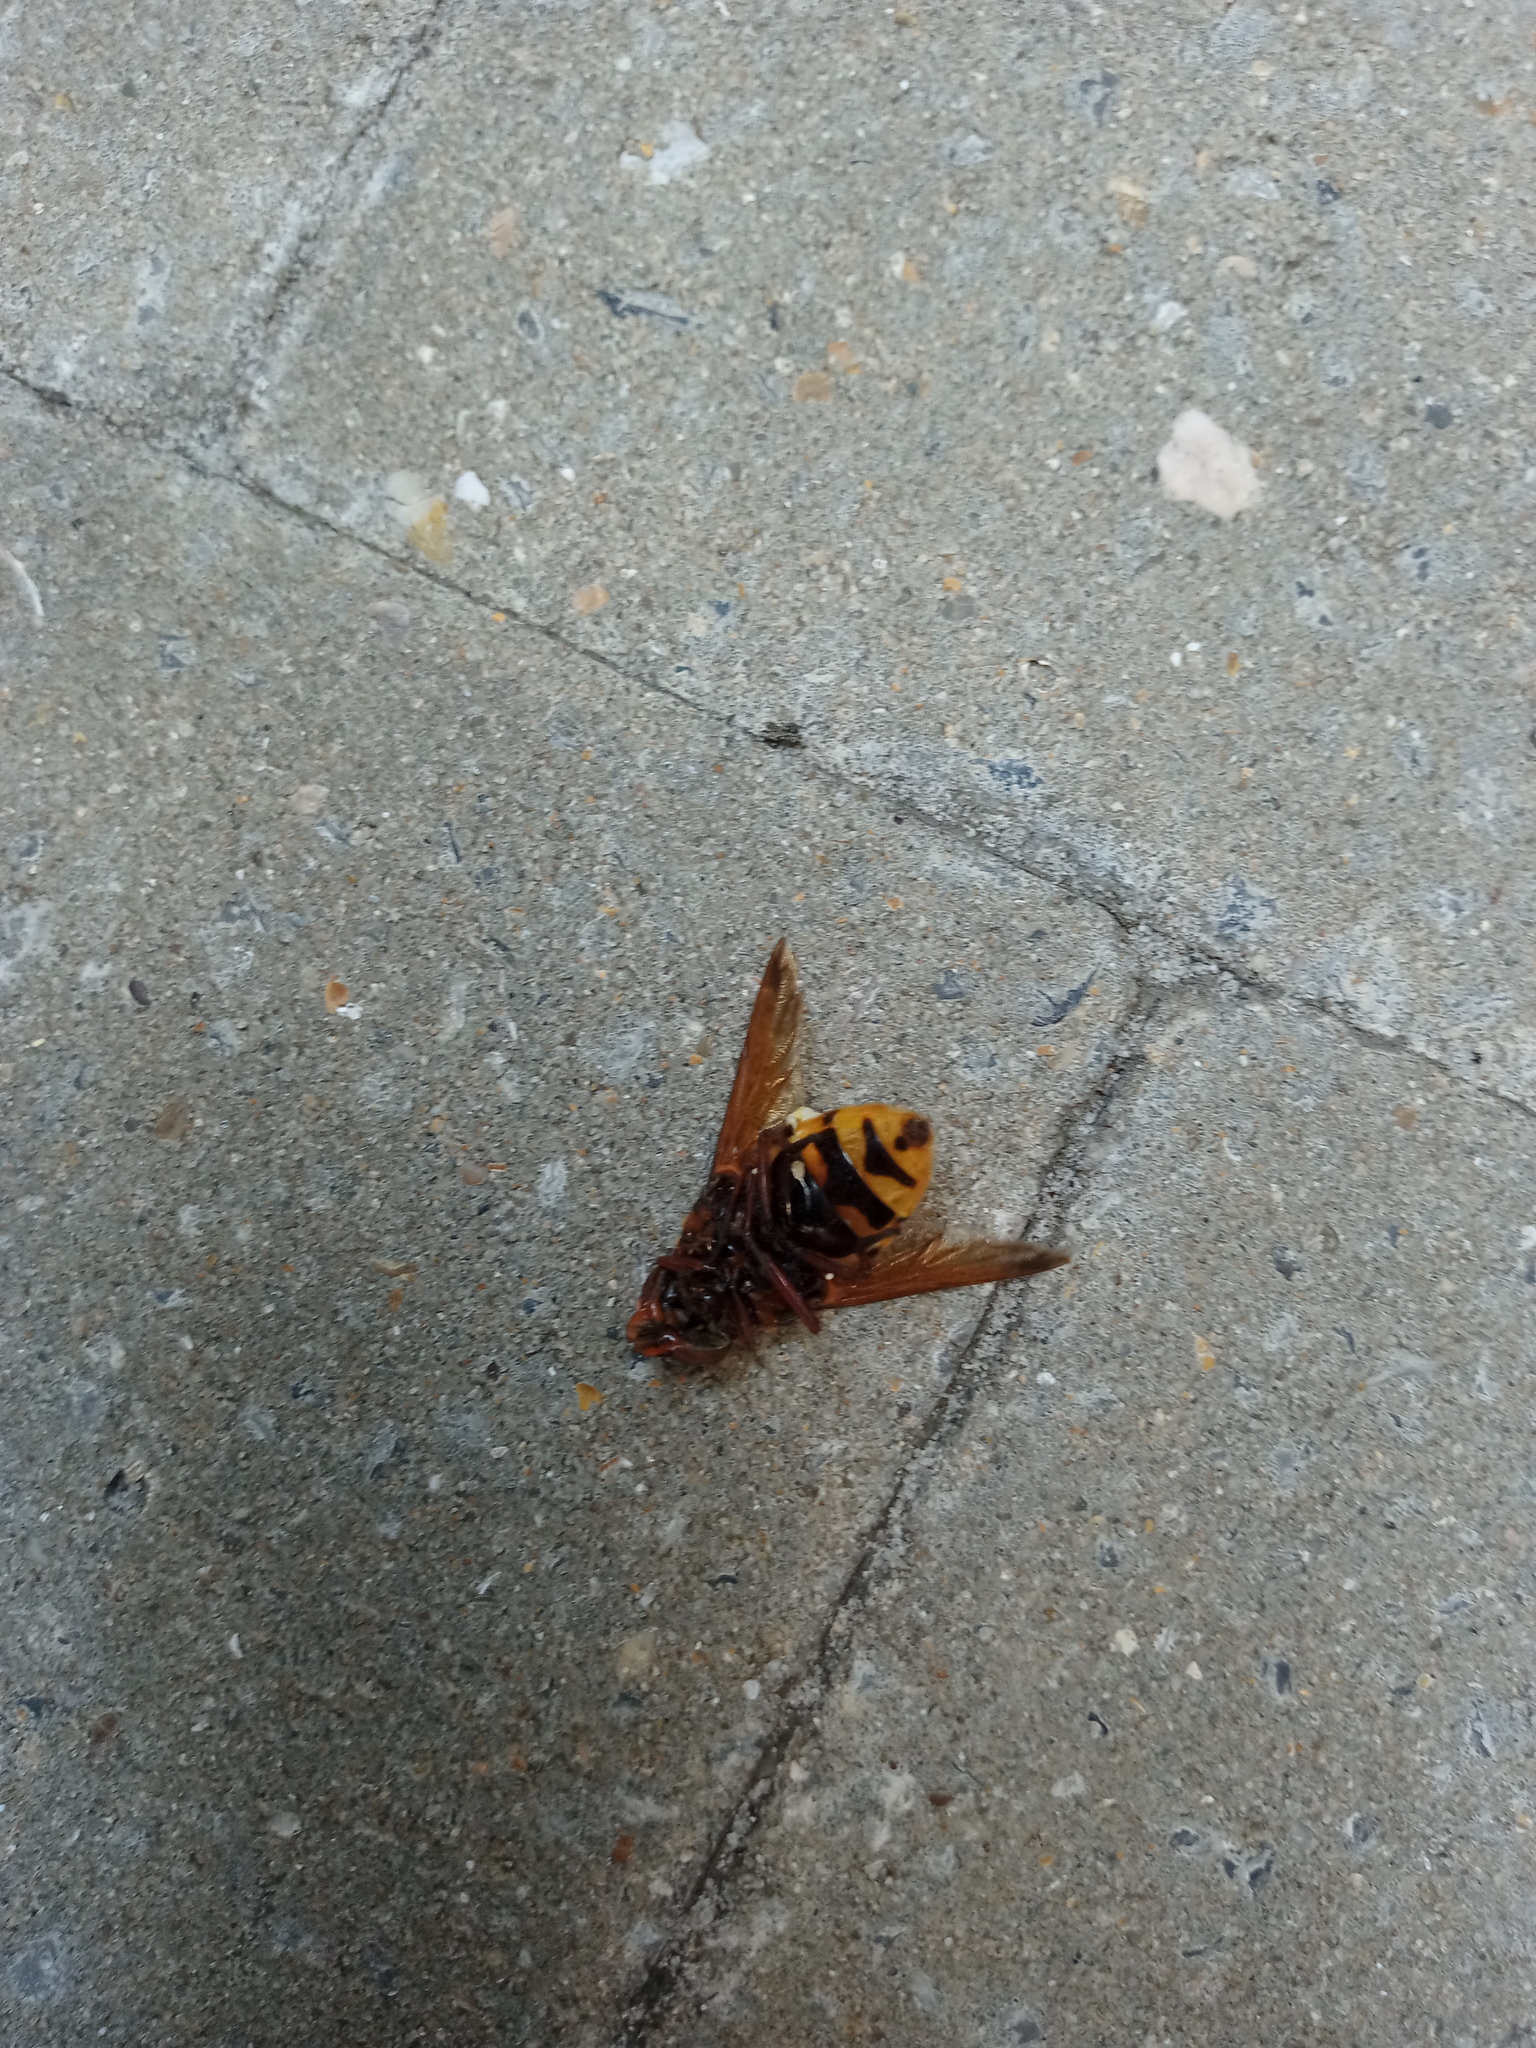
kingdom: Animalia
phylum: Arthropoda
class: Insecta
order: Diptera
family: Syrphidae
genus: Volucella
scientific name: Volucella zonaria
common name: Hornet hoverfly
